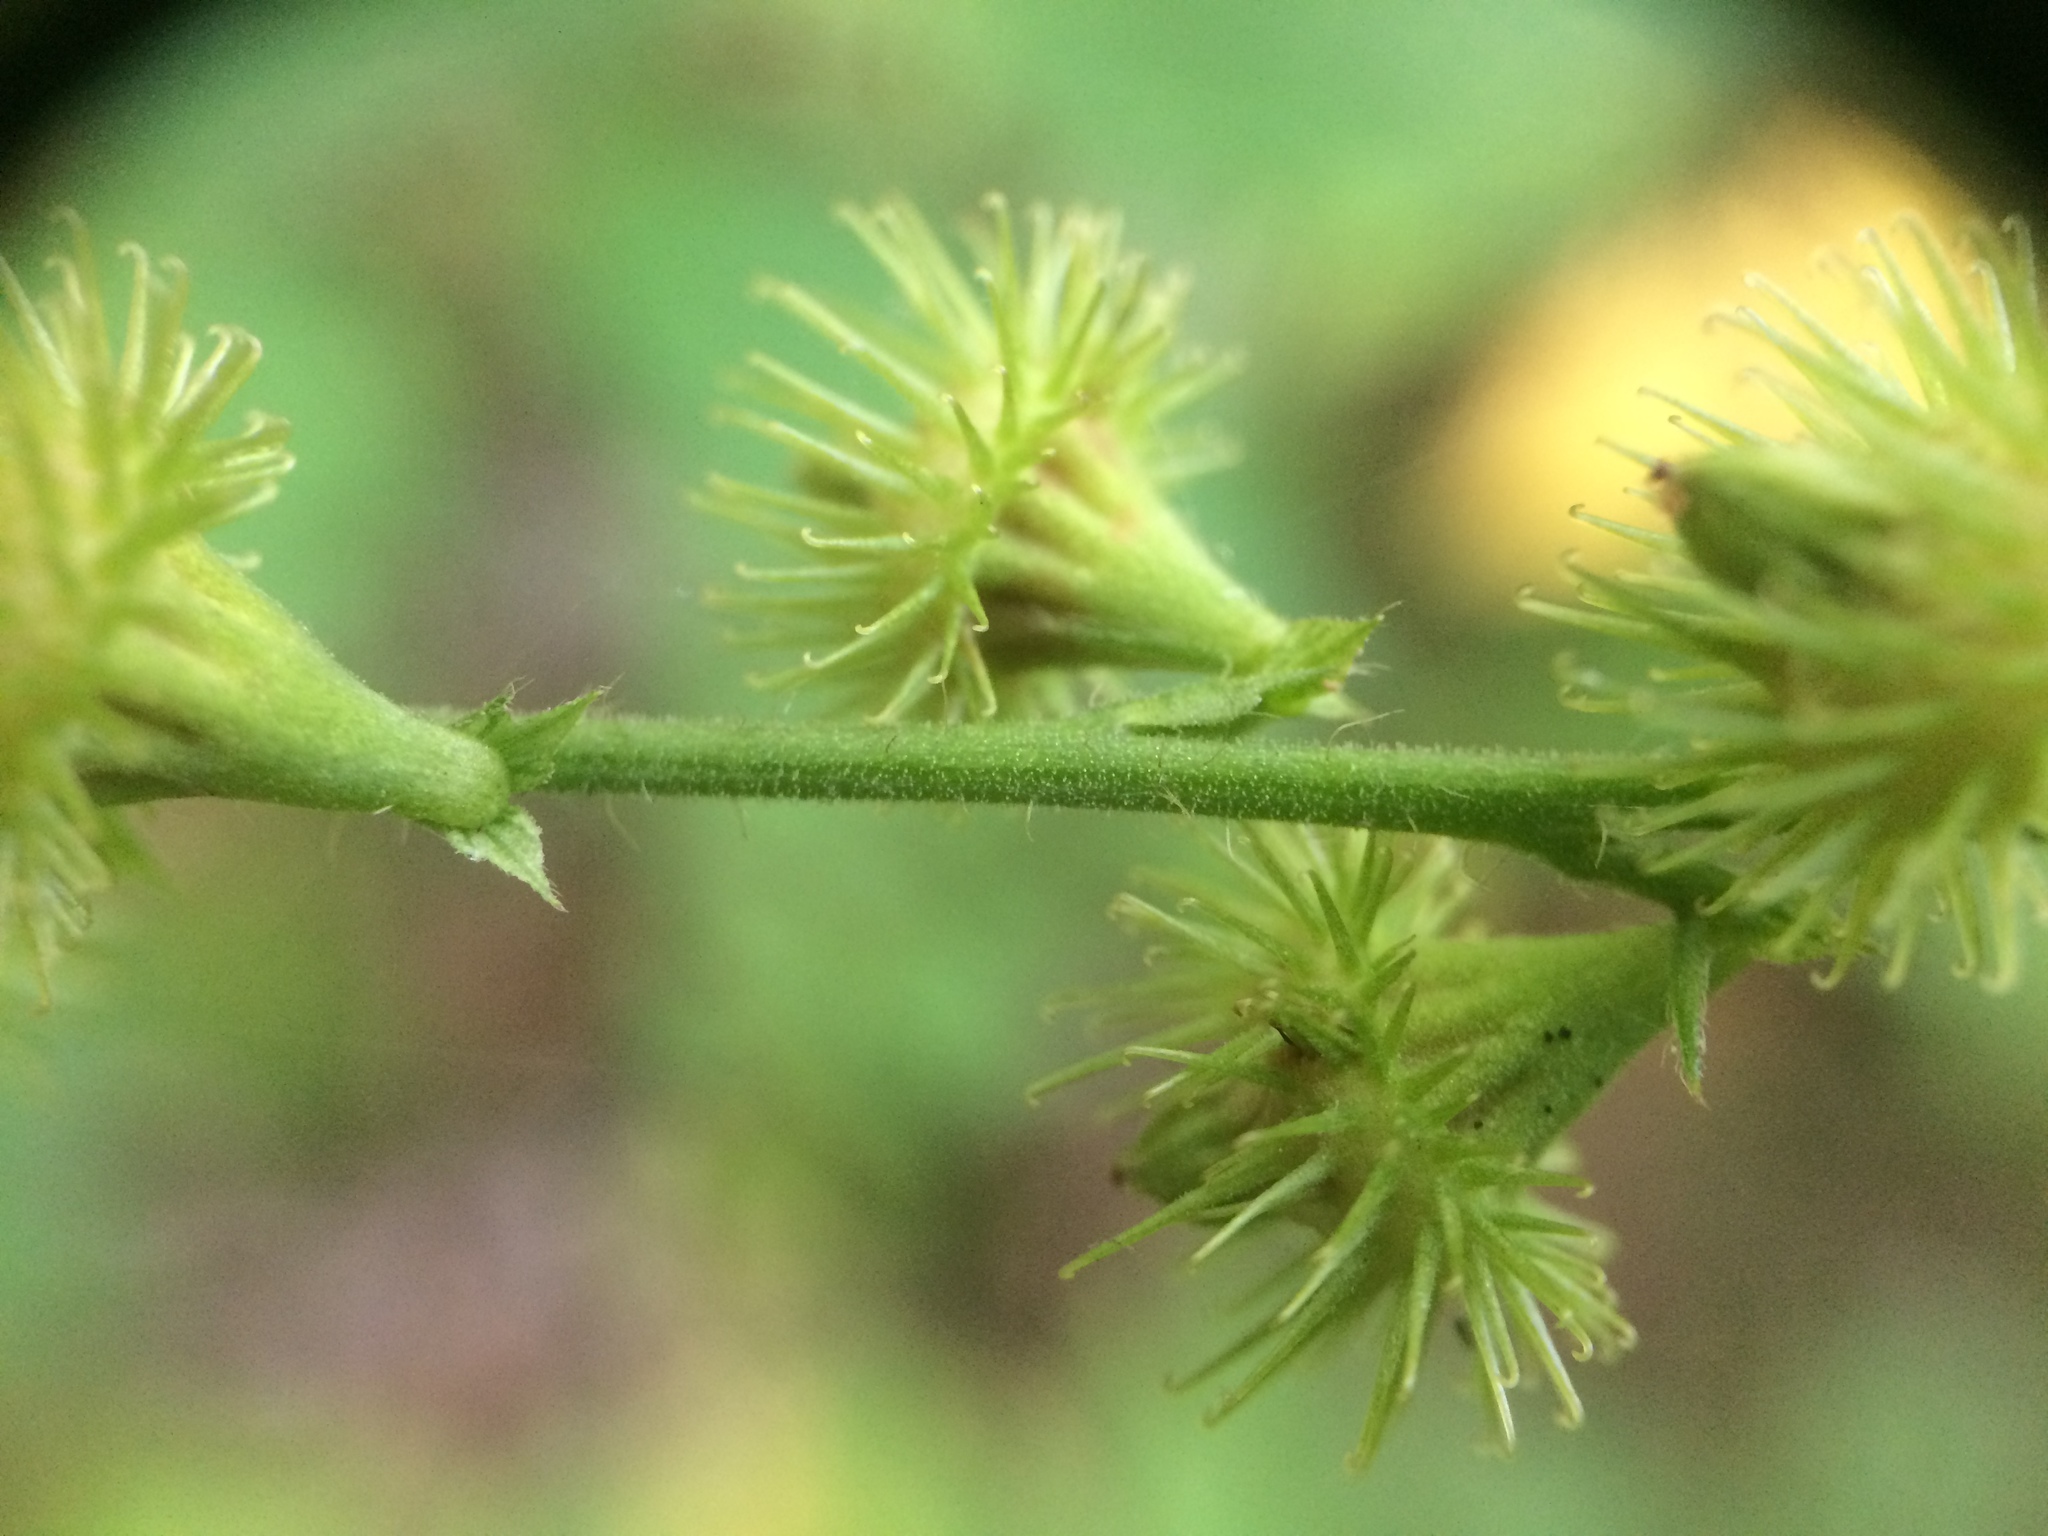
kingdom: Plantae
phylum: Tracheophyta
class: Magnoliopsida
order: Rosales
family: Rosaceae
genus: Agrimonia
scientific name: Agrimonia gryposepala
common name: Common agrimony
